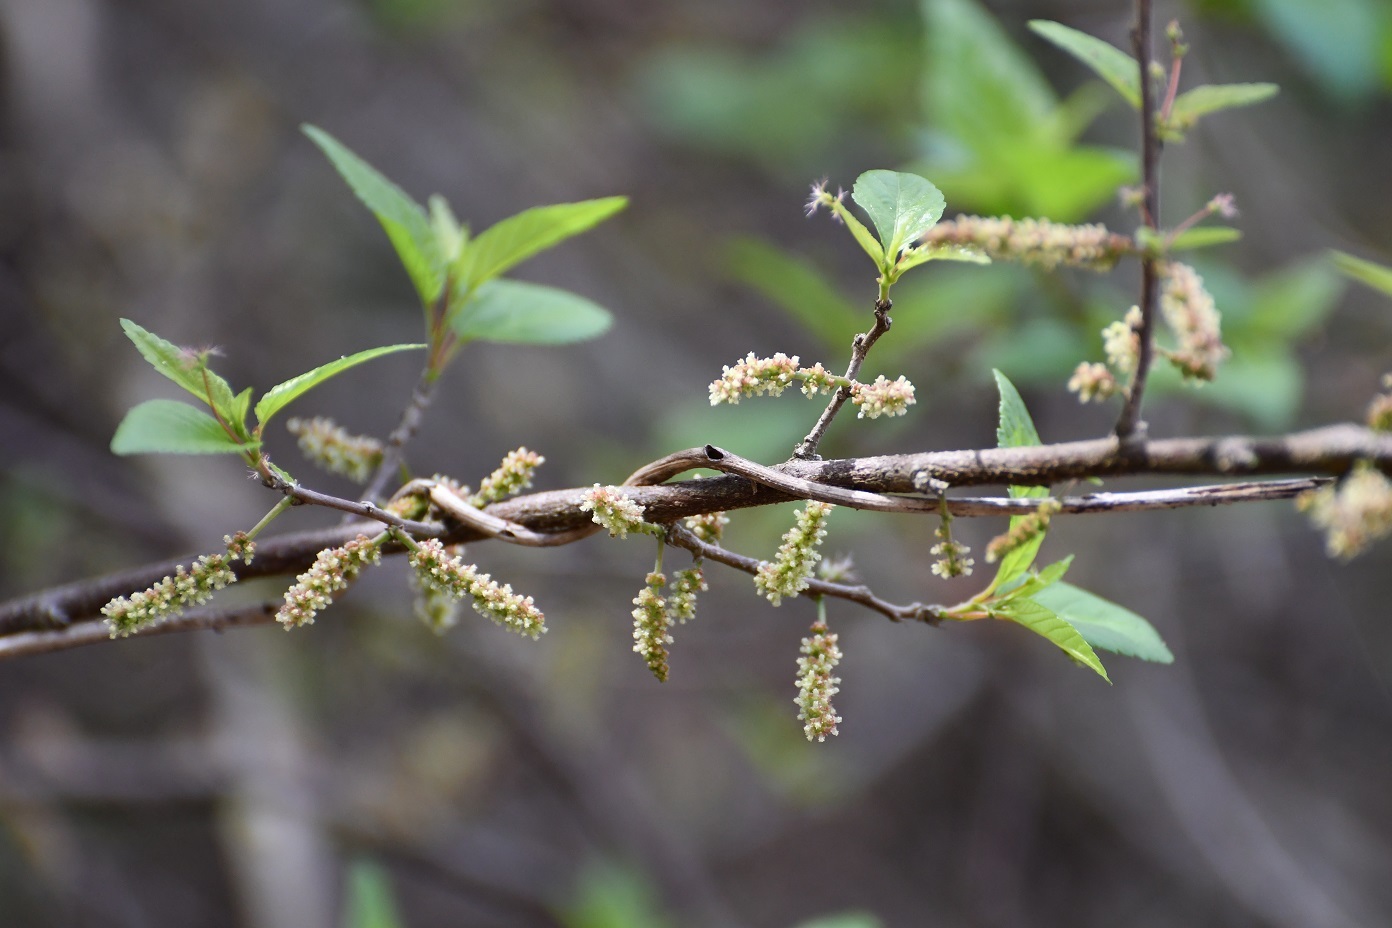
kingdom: Plantae
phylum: Tracheophyta
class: Magnoliopsida
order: Malpighiales
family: Euphorbiaceae
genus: Acalypha
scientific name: Acalypha leptopoda
